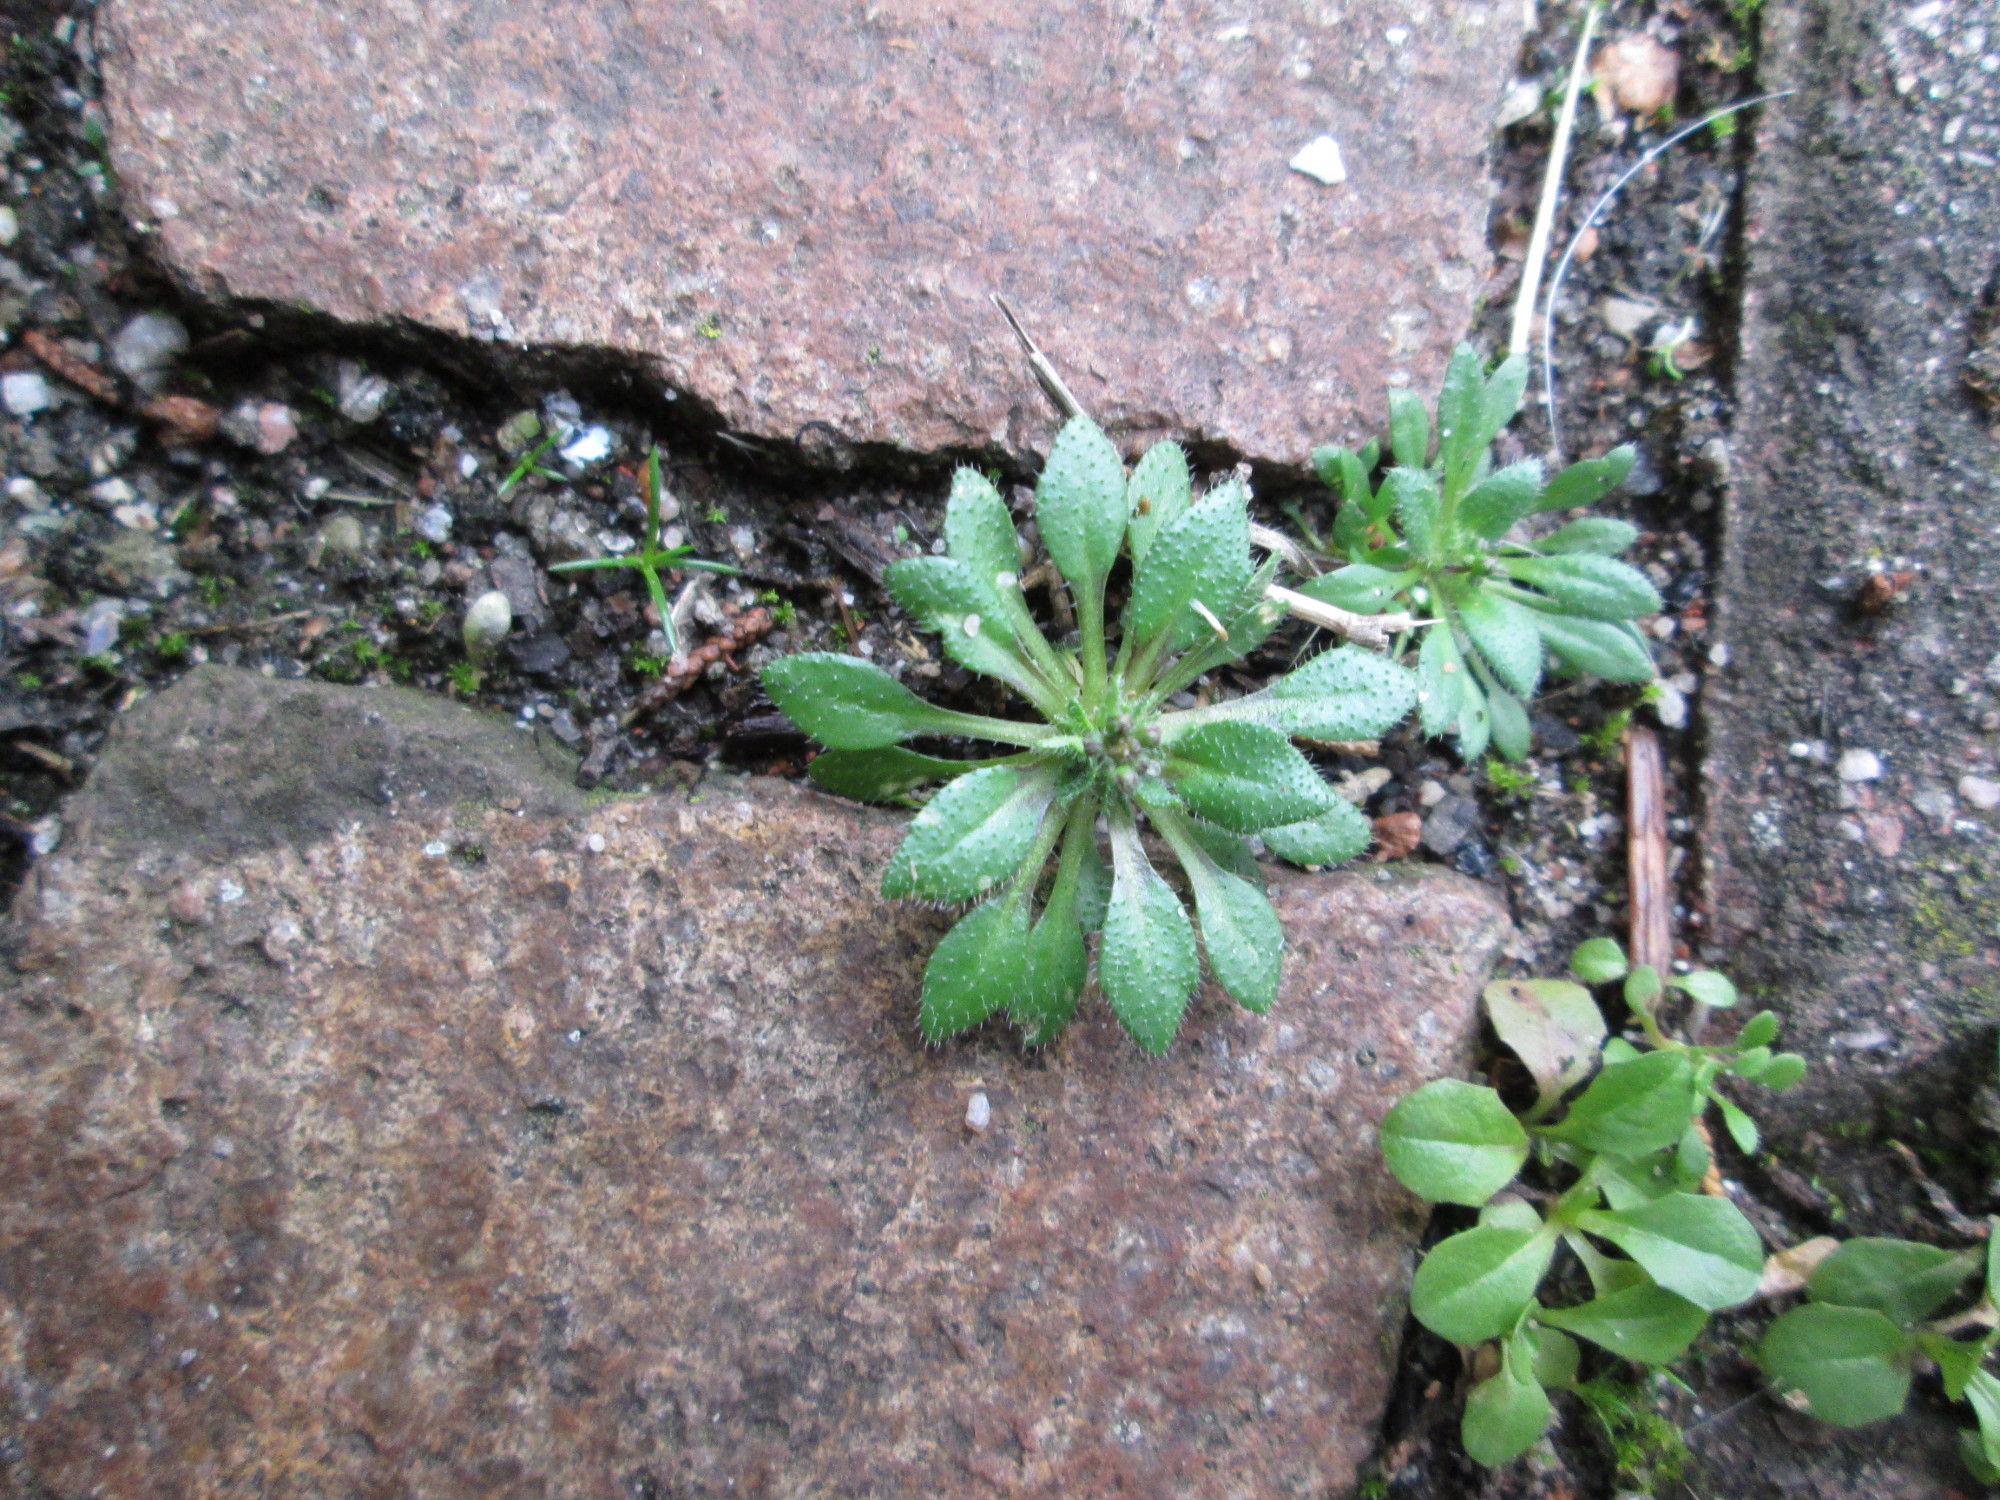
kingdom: Plantae
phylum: Tracheophyta
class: Magnoliopsida
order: Brassicales
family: Brassicaceae
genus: Draba
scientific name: Draba verna
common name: Spring draba
